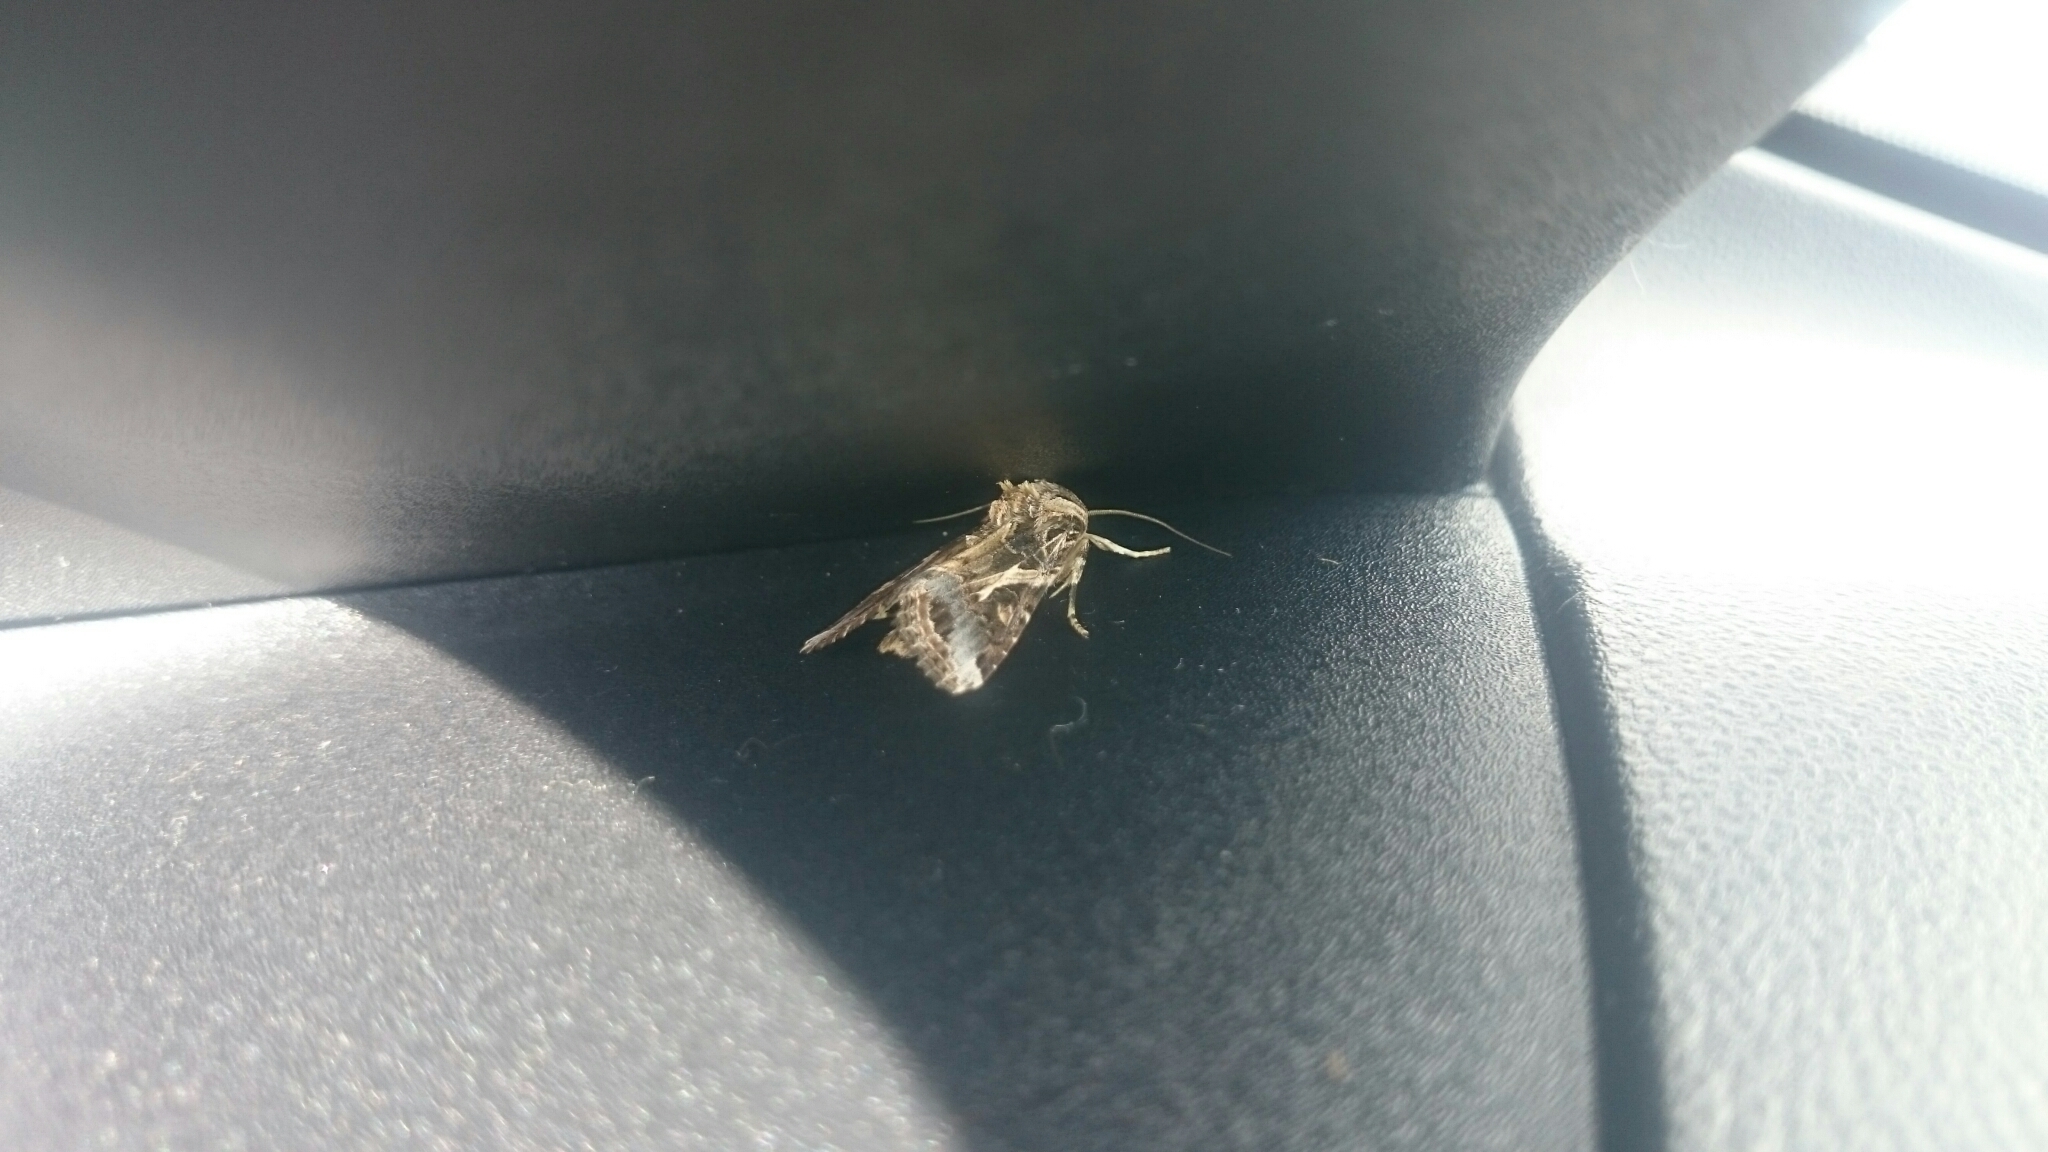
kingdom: Animalia
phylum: Arthropoda
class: Insecta
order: Lepidoptera
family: Noctuidae
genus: Spodoptera
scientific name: Spodoptera litura
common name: Asian cotton leafworm
